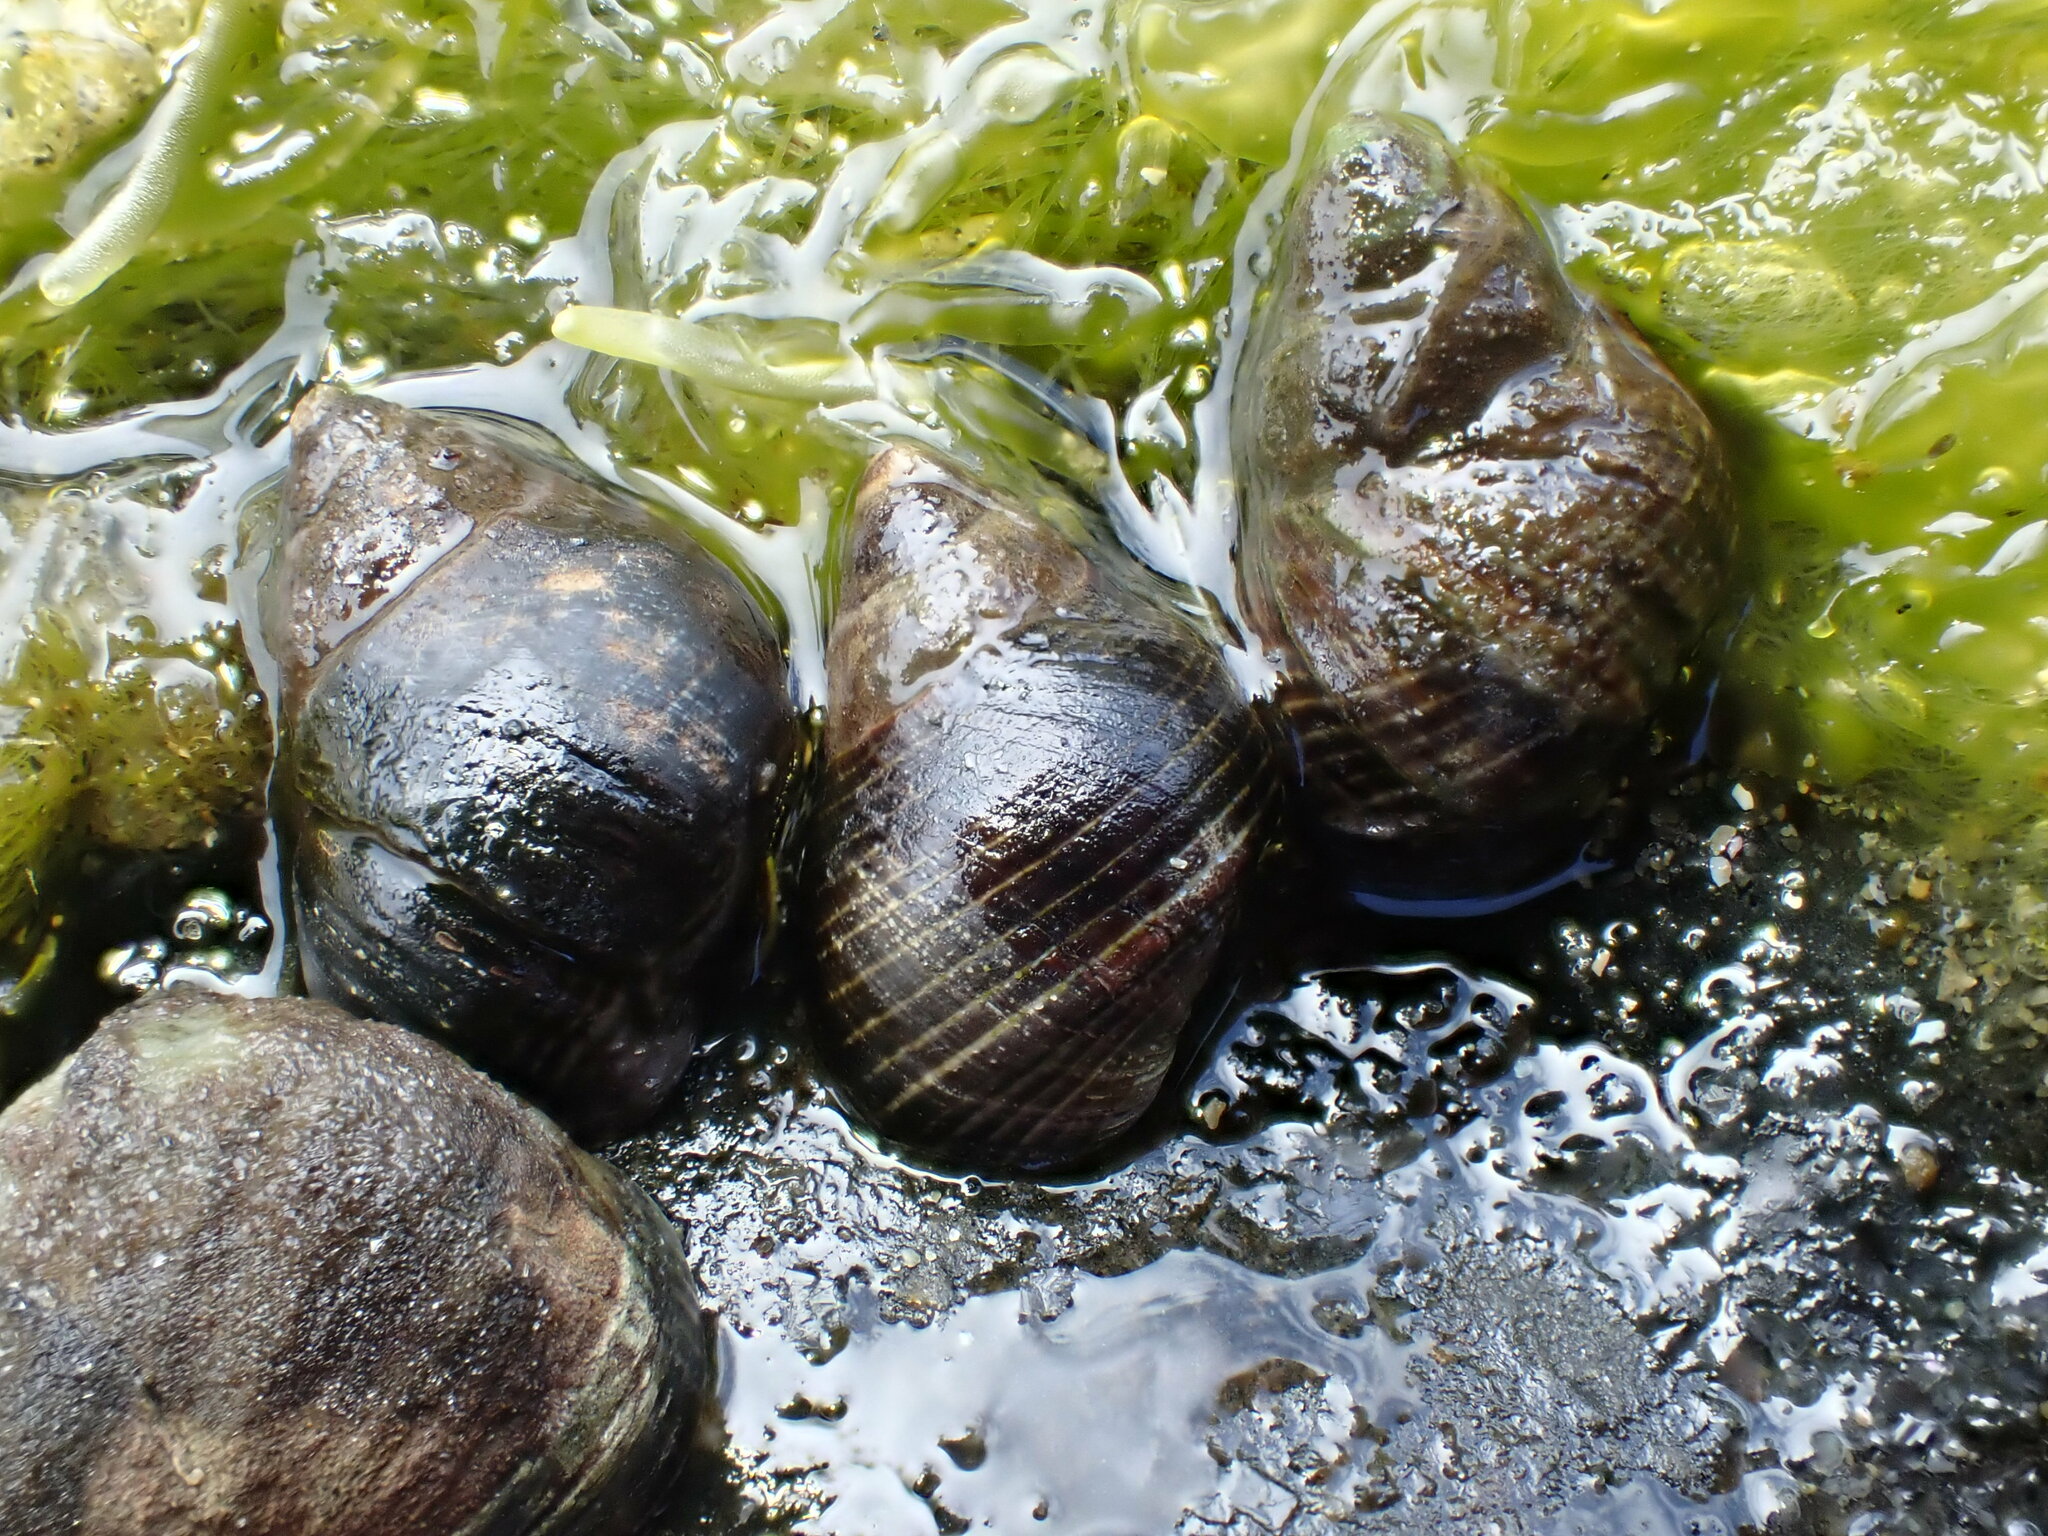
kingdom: Animalia
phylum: Mollusca
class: Gastropoda
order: Littorinimorpha
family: Littorinidae
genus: Austrolittorina
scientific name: Austrolittorina cincta
